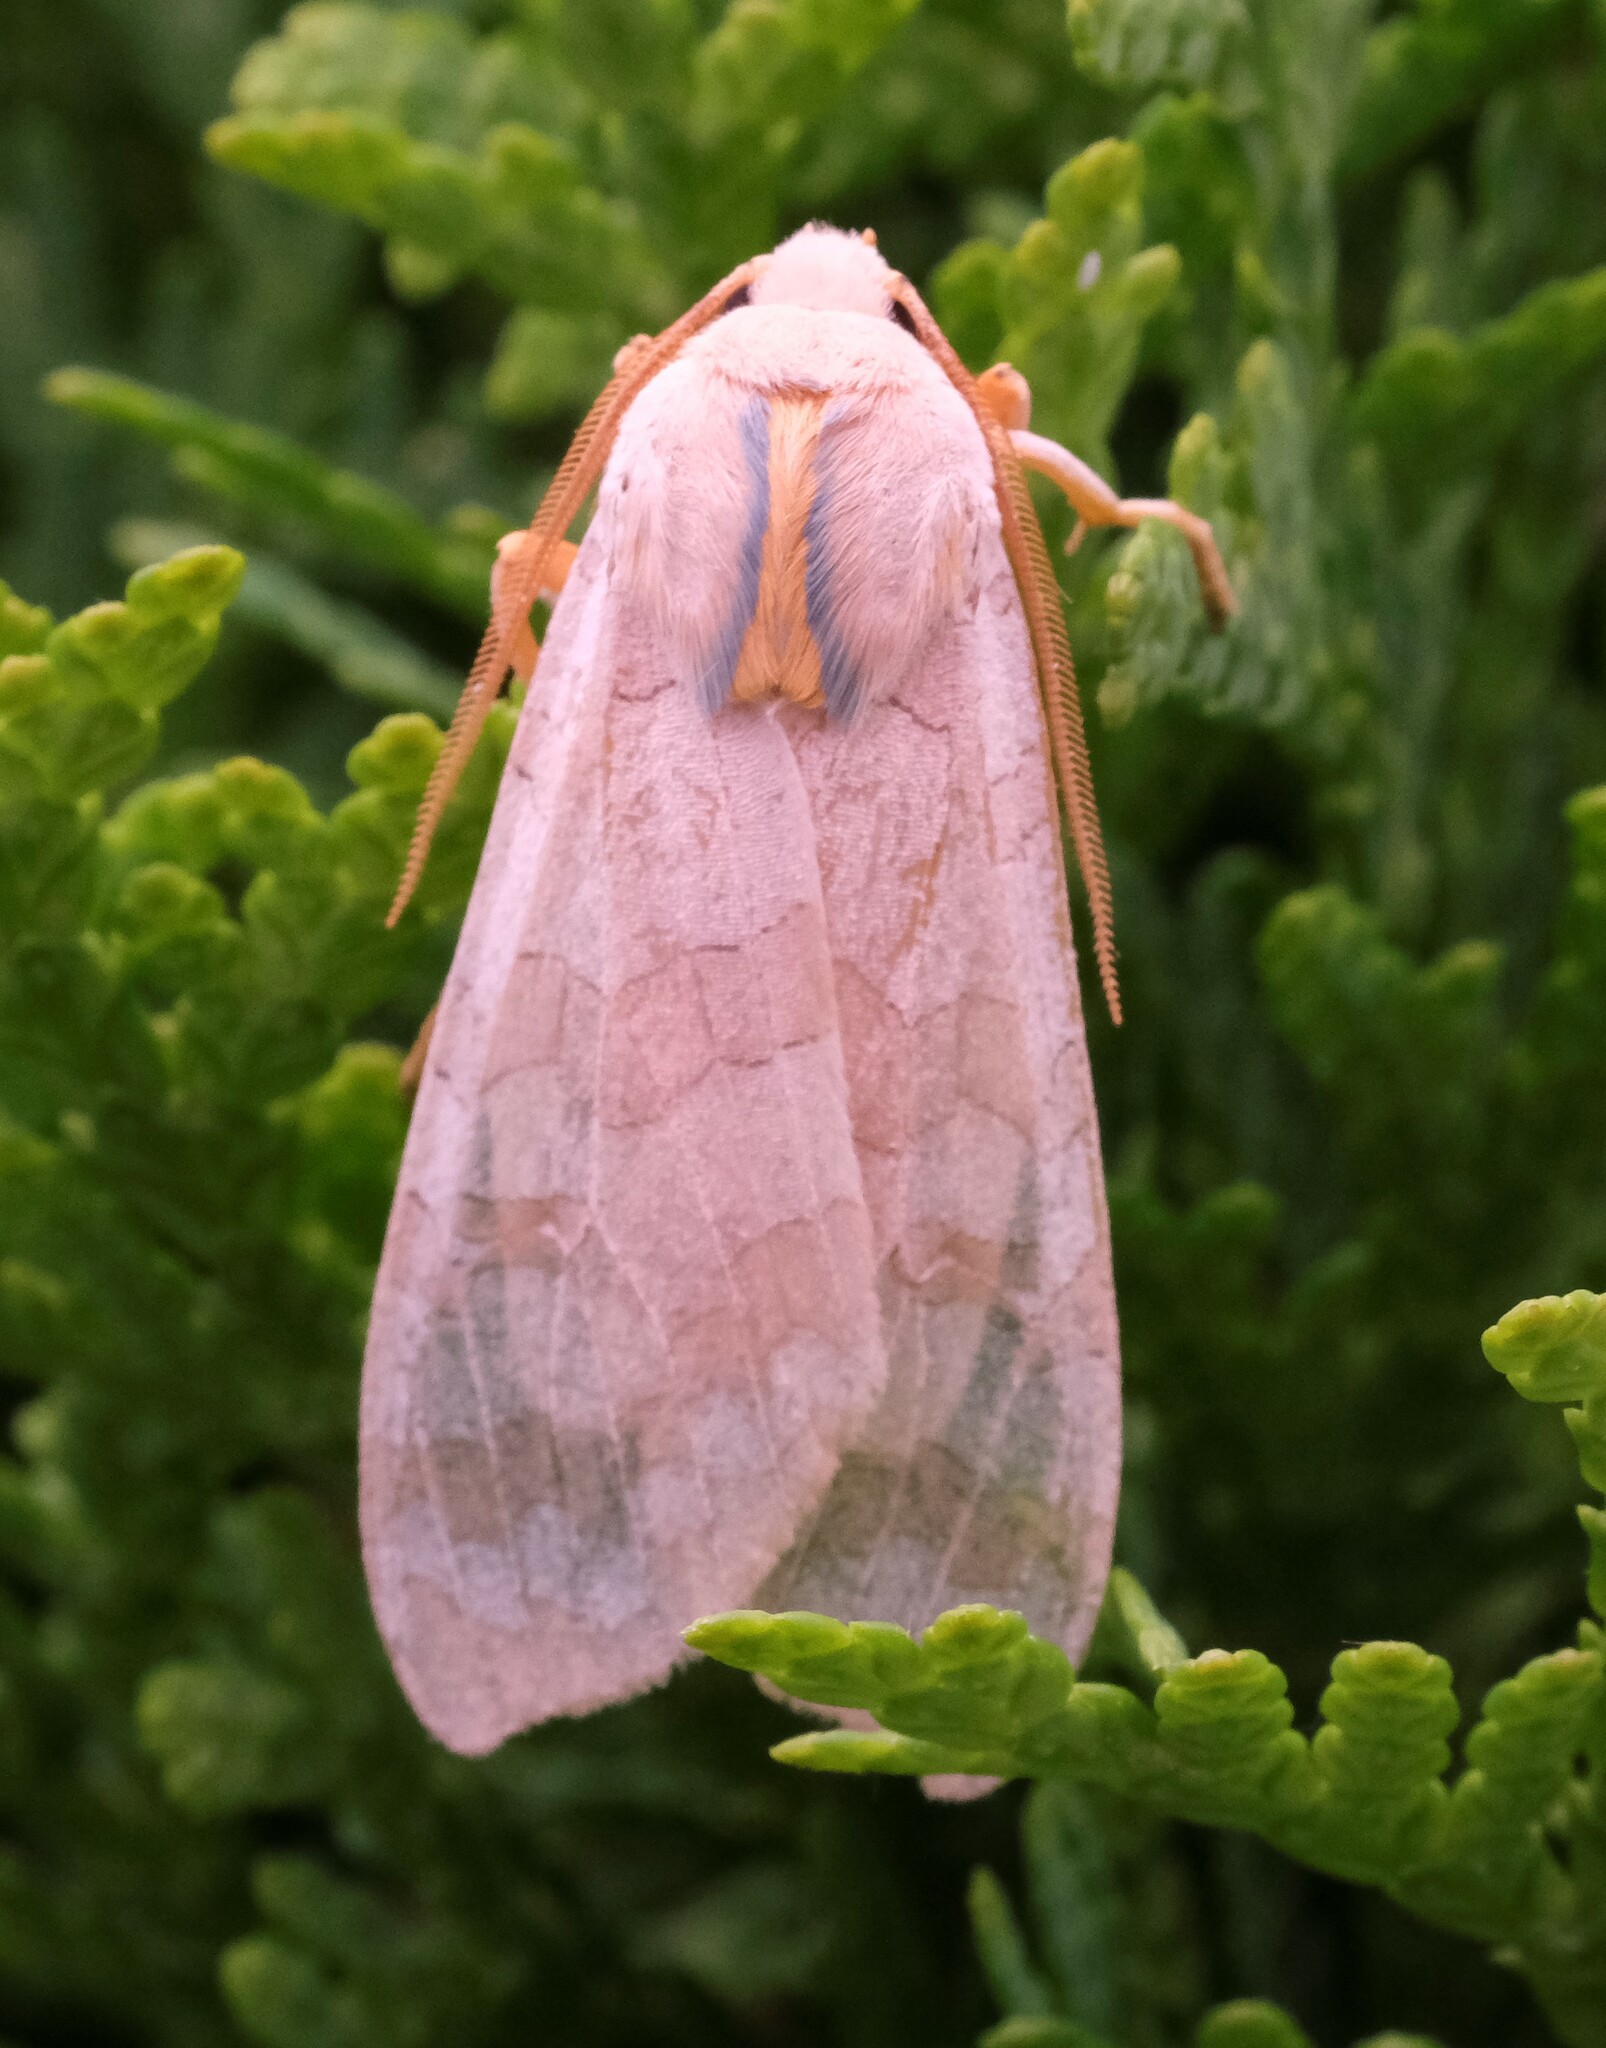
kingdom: Animalia
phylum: Arthropoda
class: Insecta
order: Lepidoptera
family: Erebidae
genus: Halysidota
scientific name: Halysidota tessellaris
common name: Banded tussock moth
